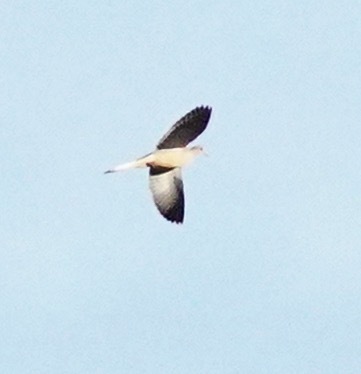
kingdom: Animalia
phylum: Chordata
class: Aves
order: Columbiformes
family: Columbidae
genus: Zenaida
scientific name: Zenaida macroura
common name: Mourning dove
